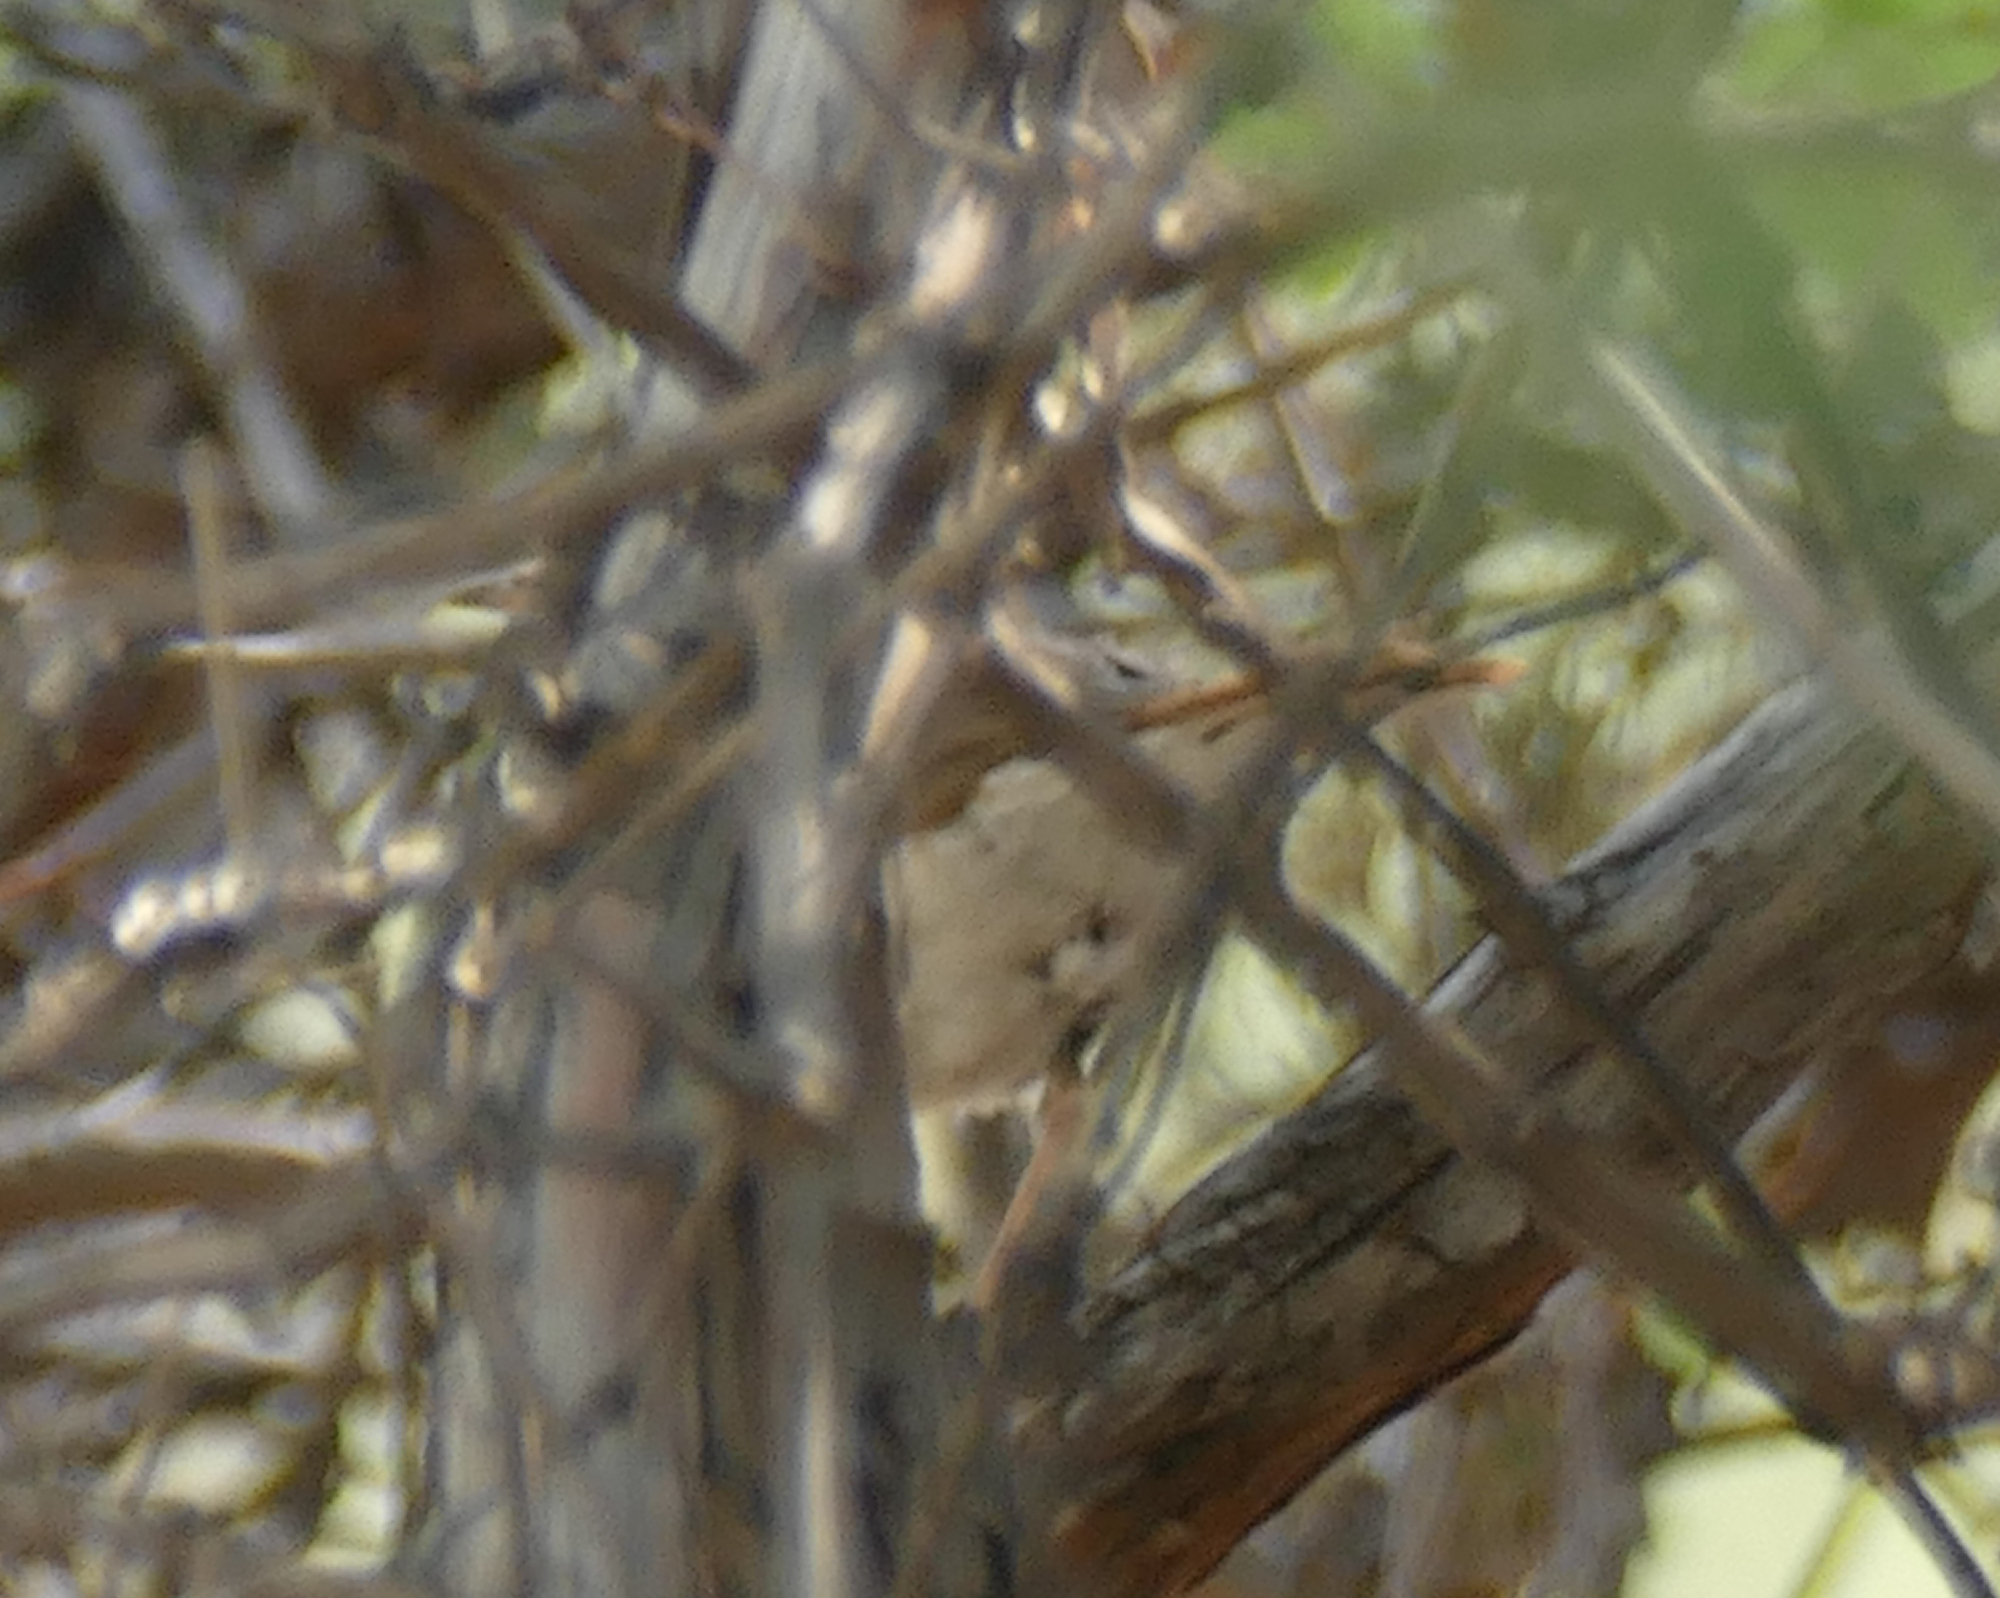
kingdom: Animalia
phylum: Chordata
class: Aves
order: Passeriformes
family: Turdidae
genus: Catharus
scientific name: Catharus guttatus
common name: Hermit thrush
